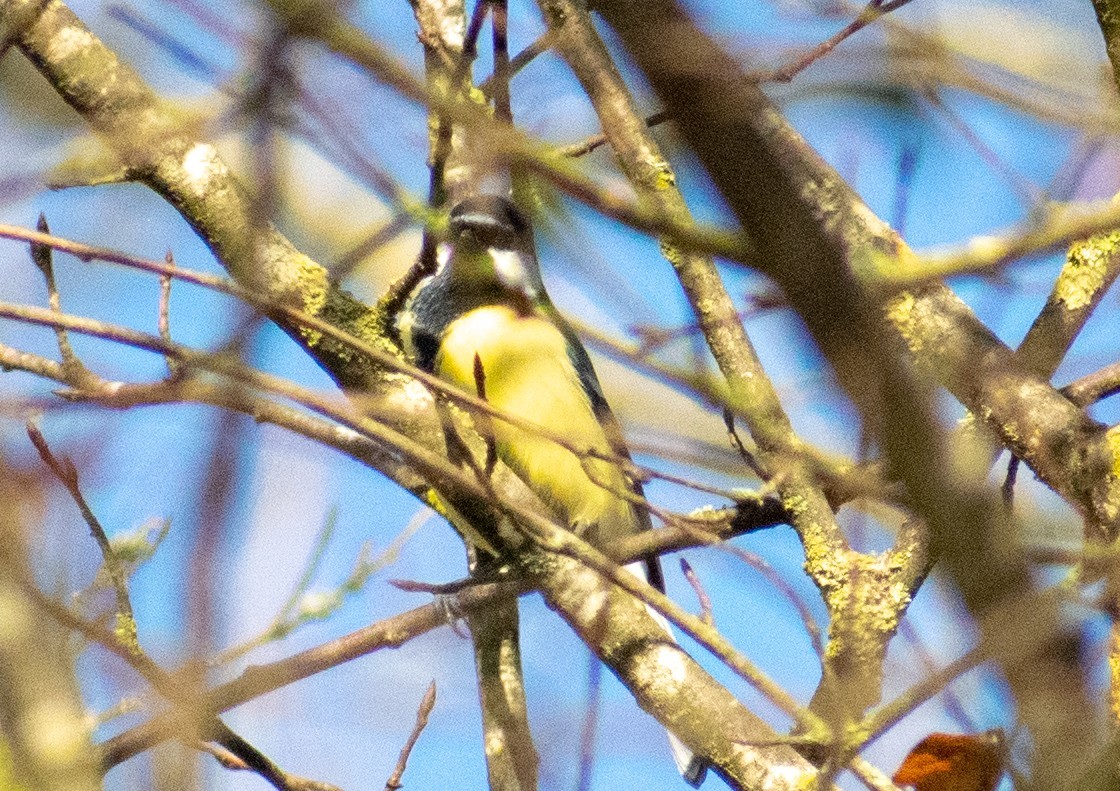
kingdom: Animalia
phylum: Chordata
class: Aves
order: Passeriformes
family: Paridae
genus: Parus
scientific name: Parus major
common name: Great tit
